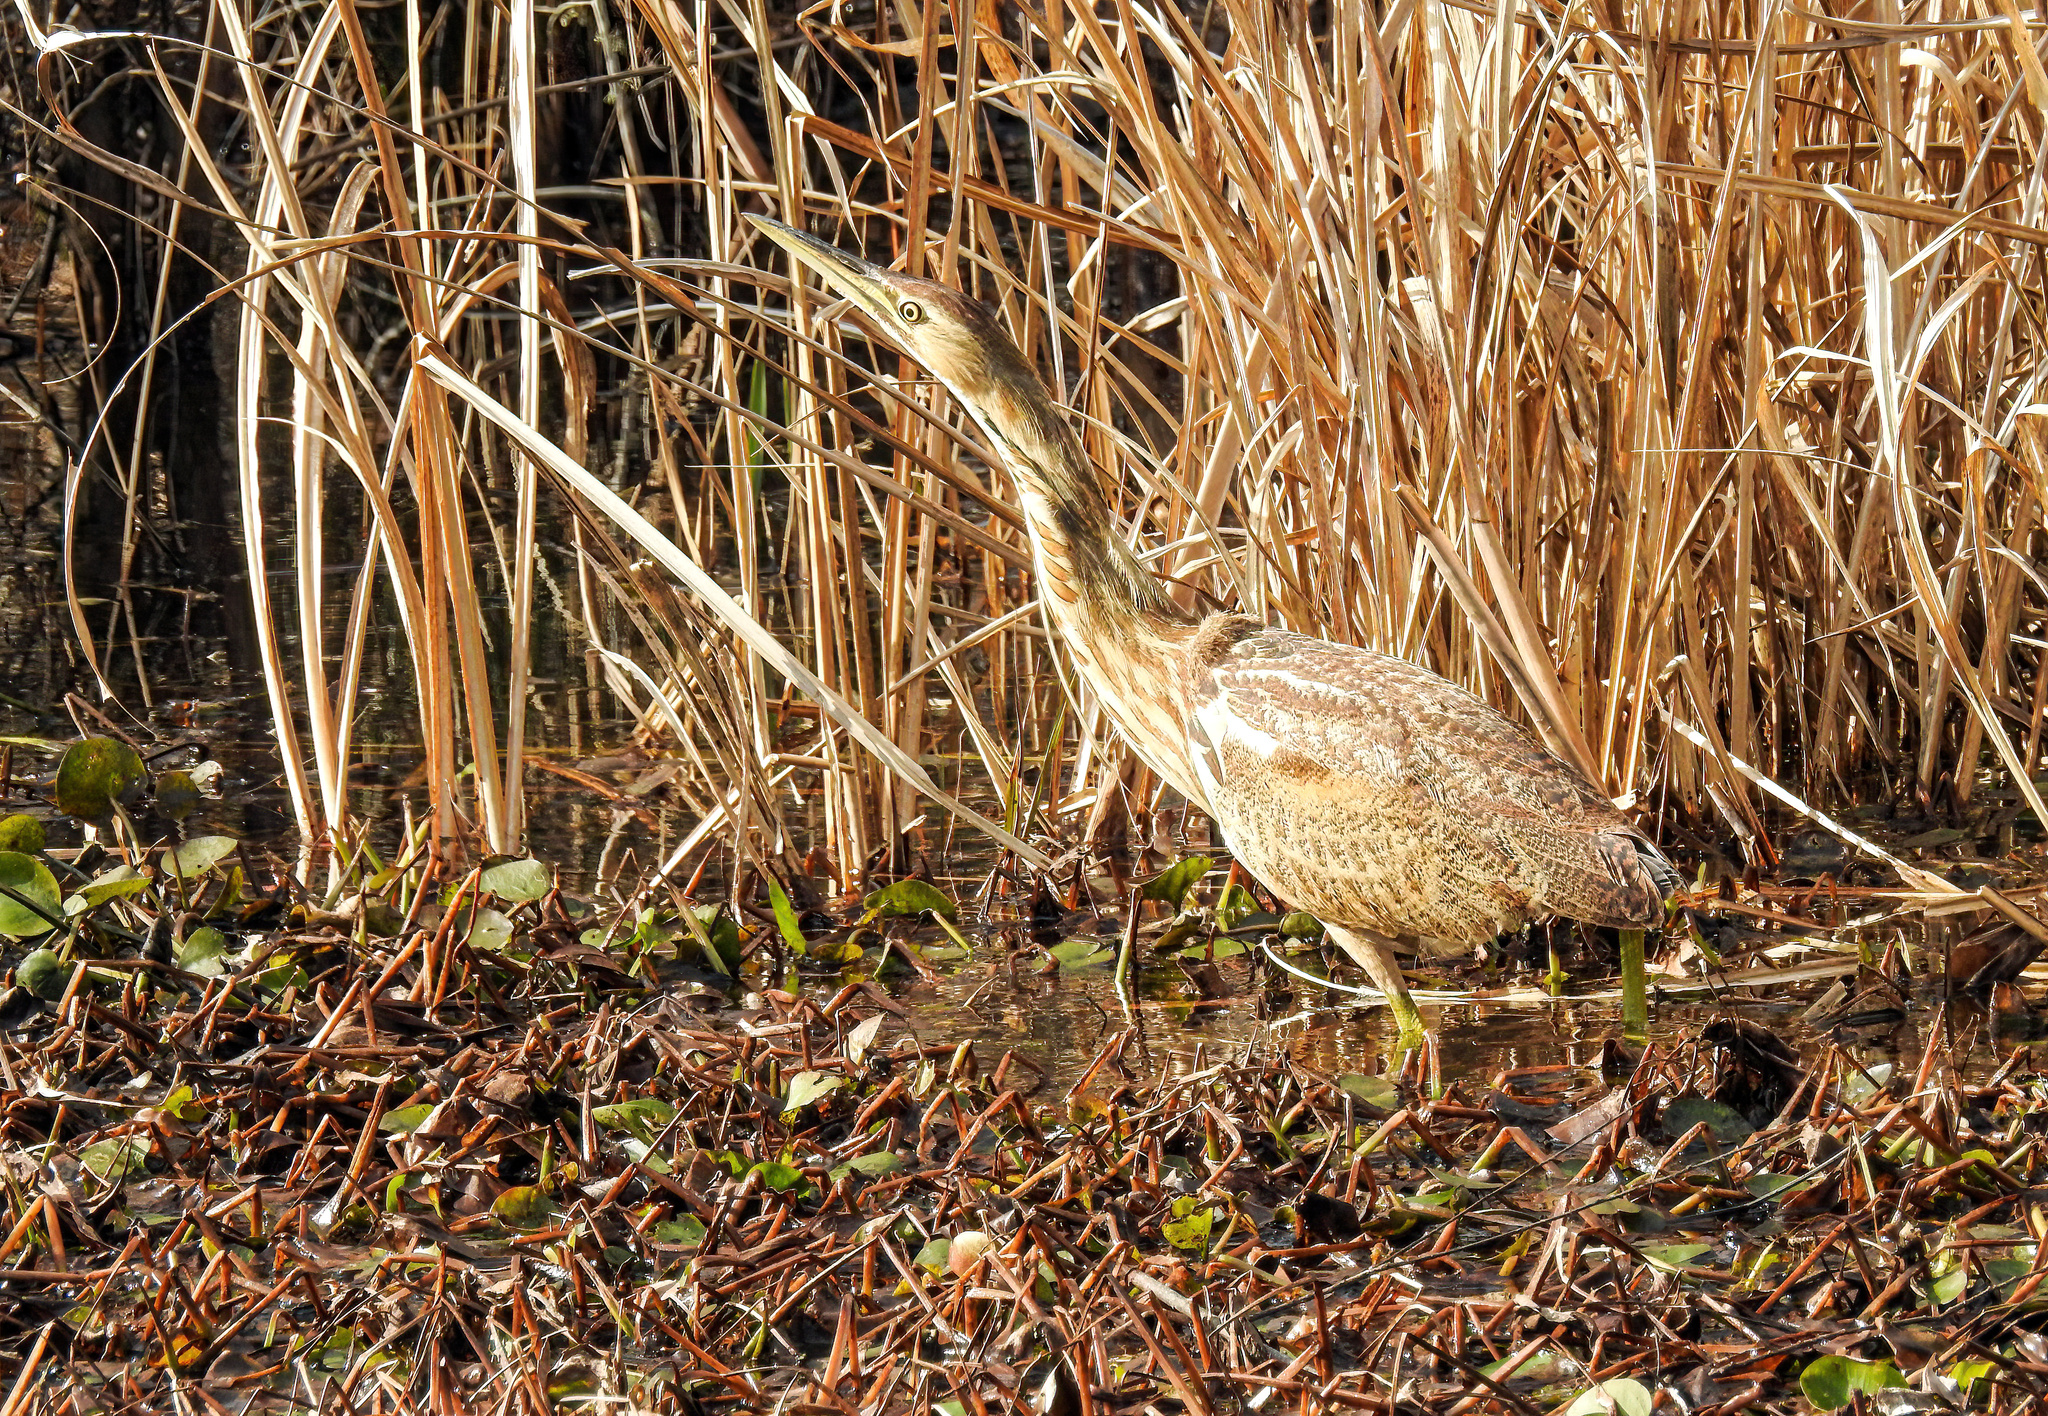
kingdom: Animalia
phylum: Chordata
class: Aves
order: Pelecaniformes
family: Ardeidae
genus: Botaurus
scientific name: Botaurus lentiginosus
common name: American bittern
